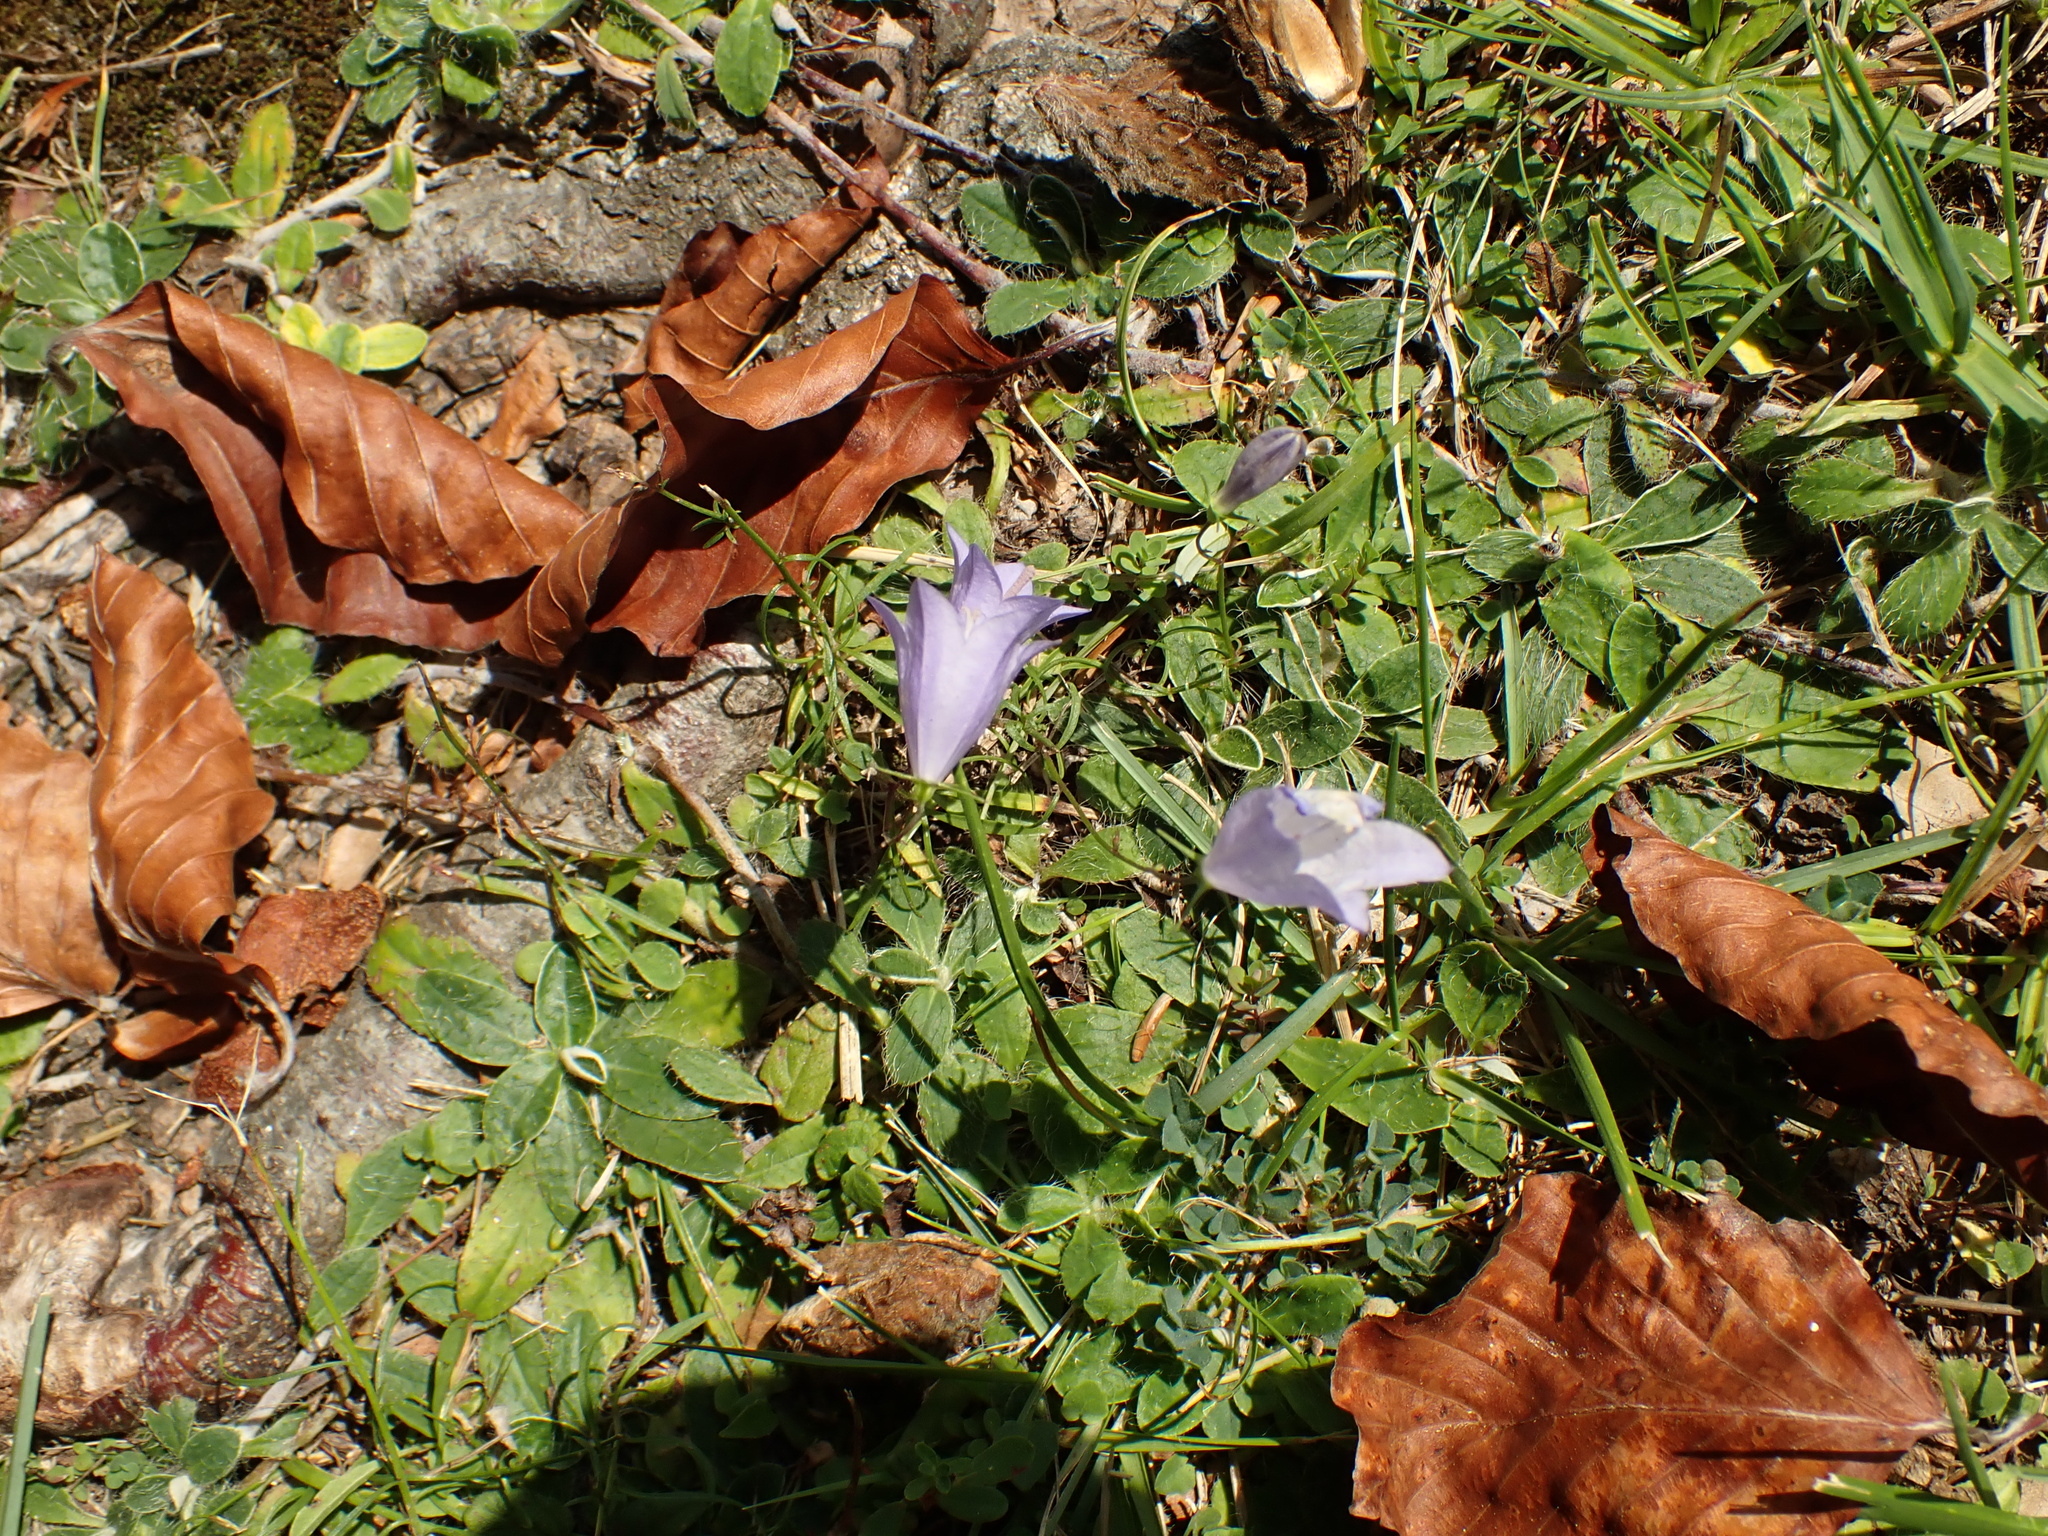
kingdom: Plantae
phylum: Tracheophyta
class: Magnoliopsida
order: Asterales
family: Campanulaceae
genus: Campanula
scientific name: Campanula rotundifolia
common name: Harebell
